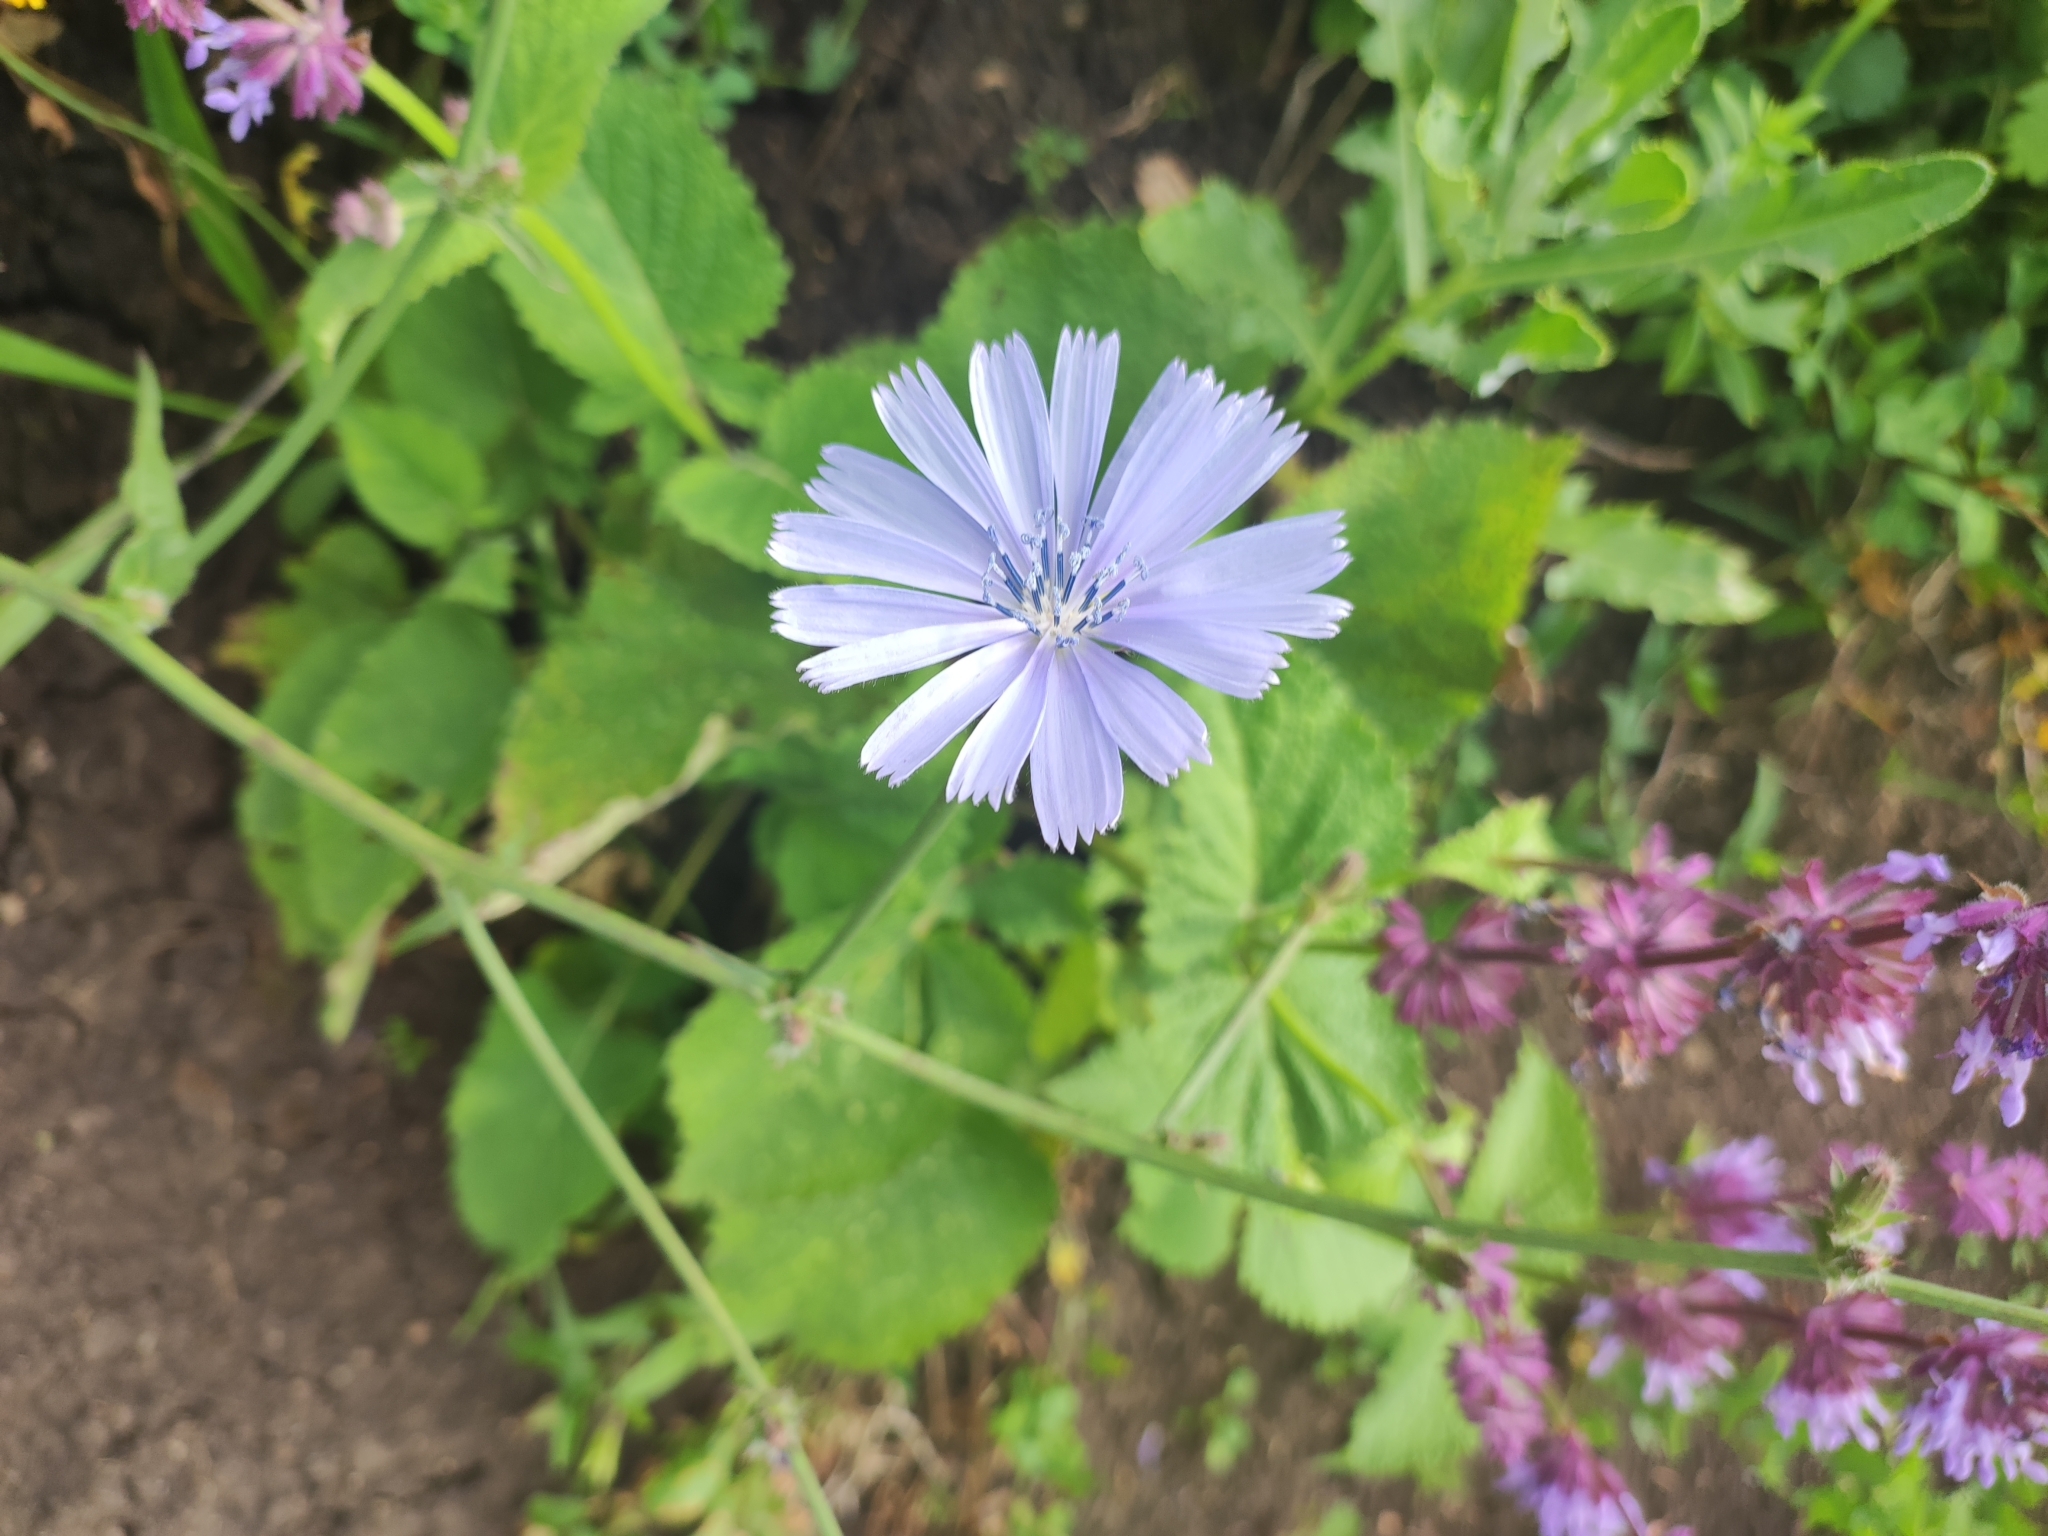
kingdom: Plantae
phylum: Tracheophyta
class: Magnoliopsida
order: Asterales
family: Asteraceae
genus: Cichorium
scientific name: Cichorium intybus
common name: Chicory
